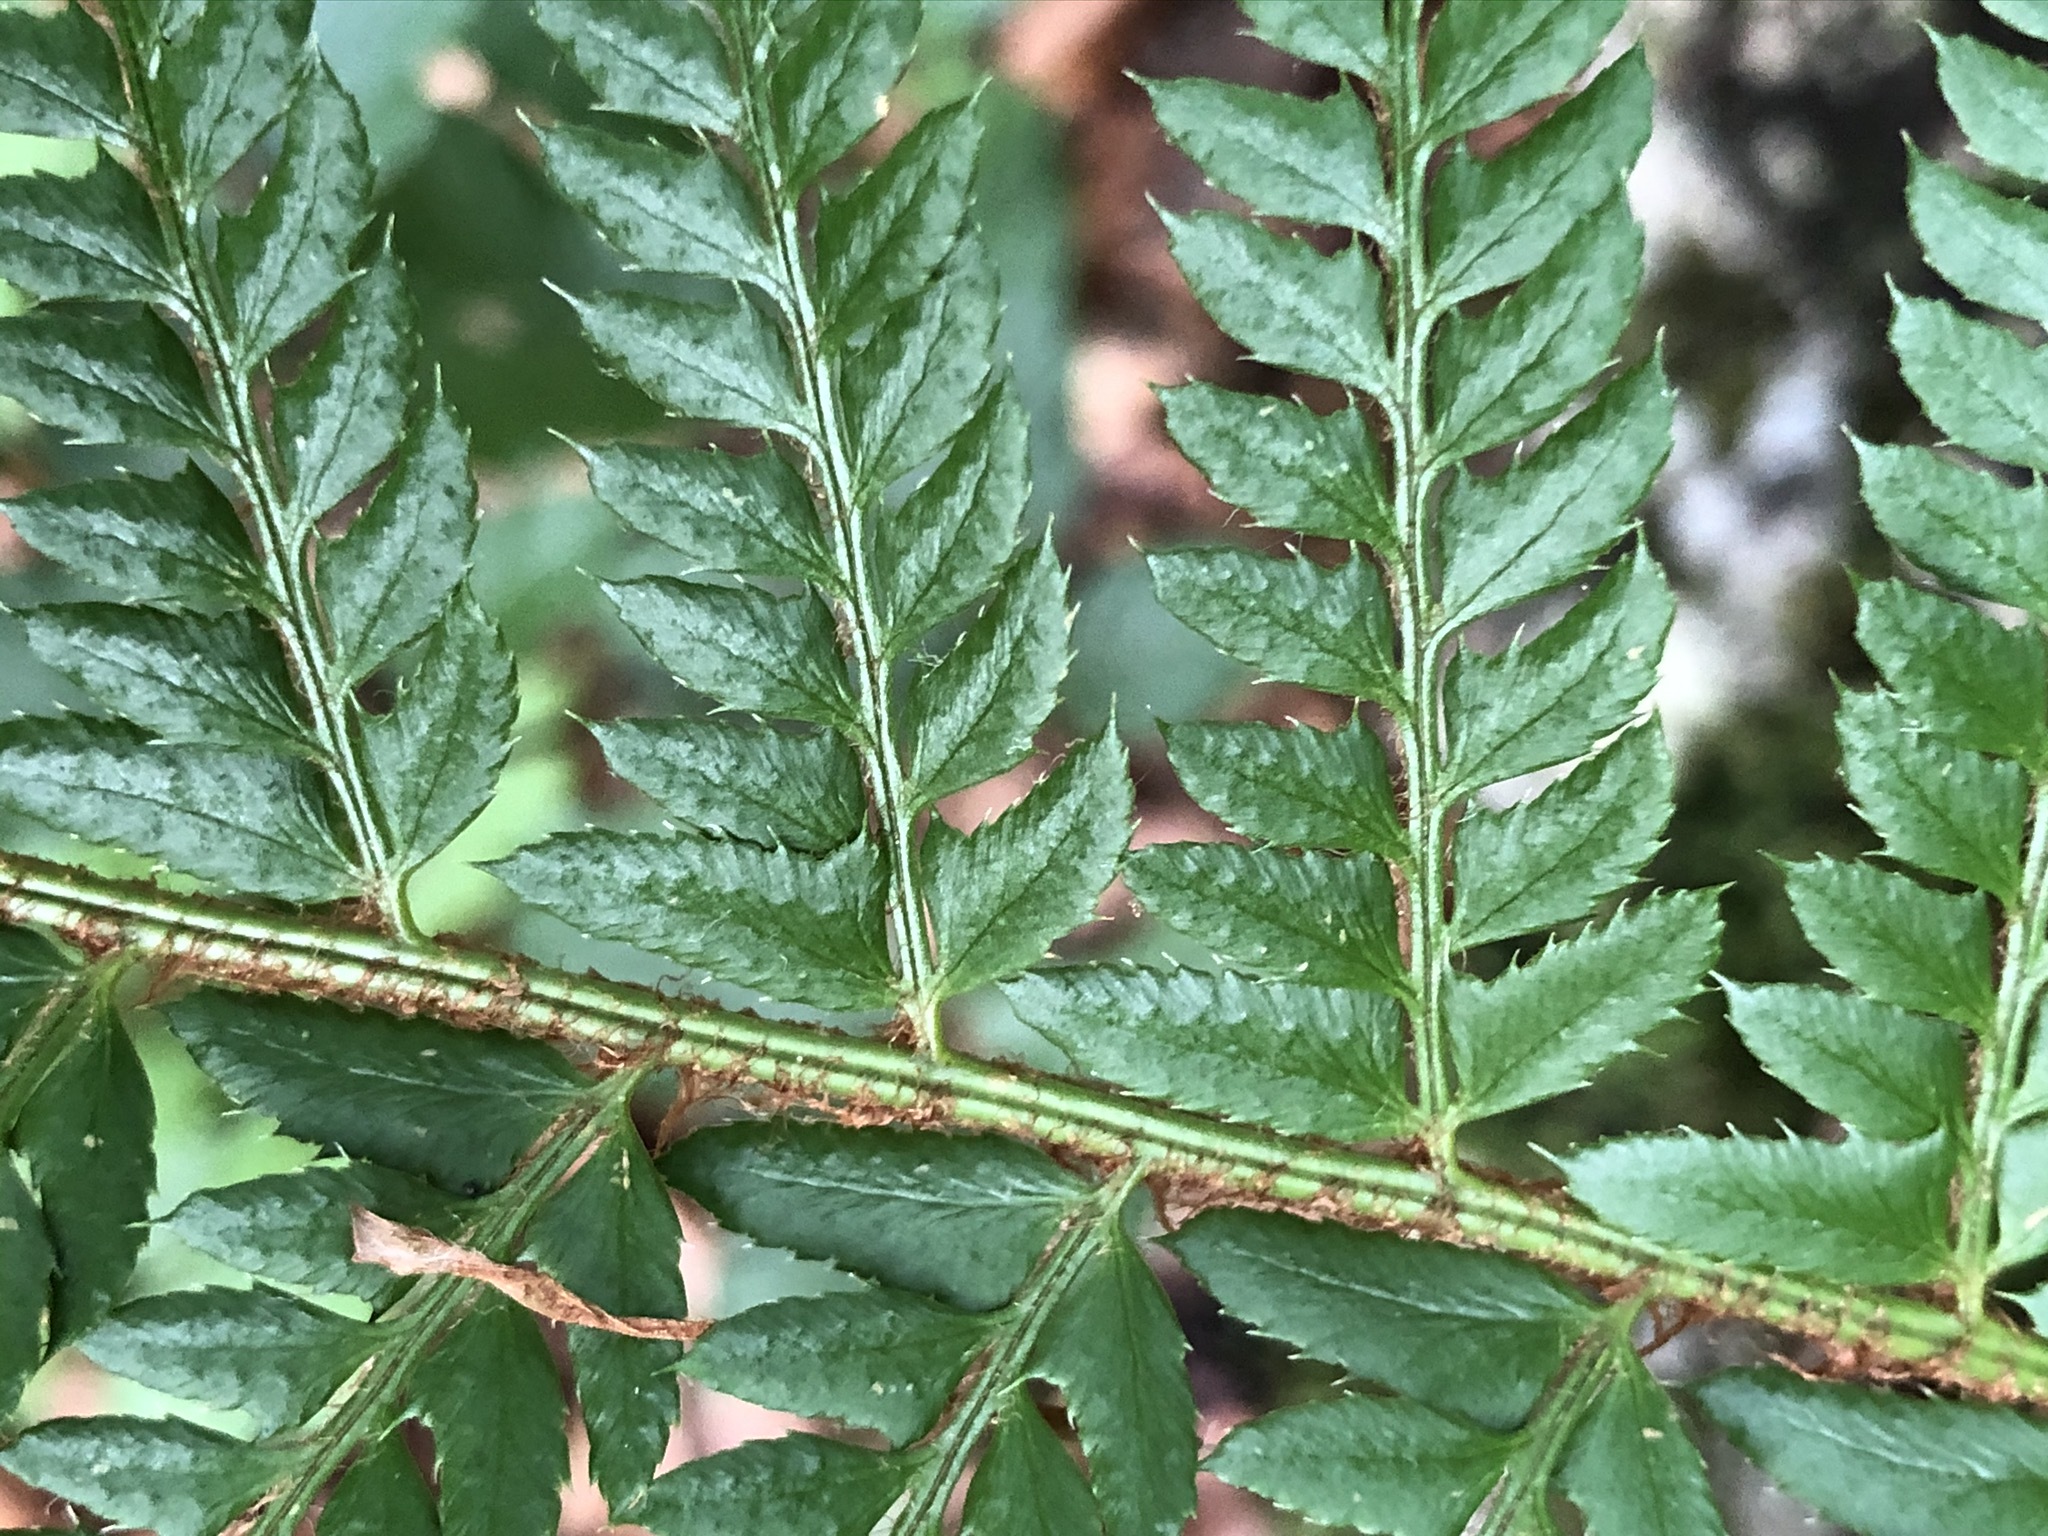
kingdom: Plantae
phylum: Tracheophyta
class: Polypodiopsida
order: Polypodiales
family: Dryopteridaceae
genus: Polystichum
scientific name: Polystichum aculeatum
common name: Hard shield-fern
